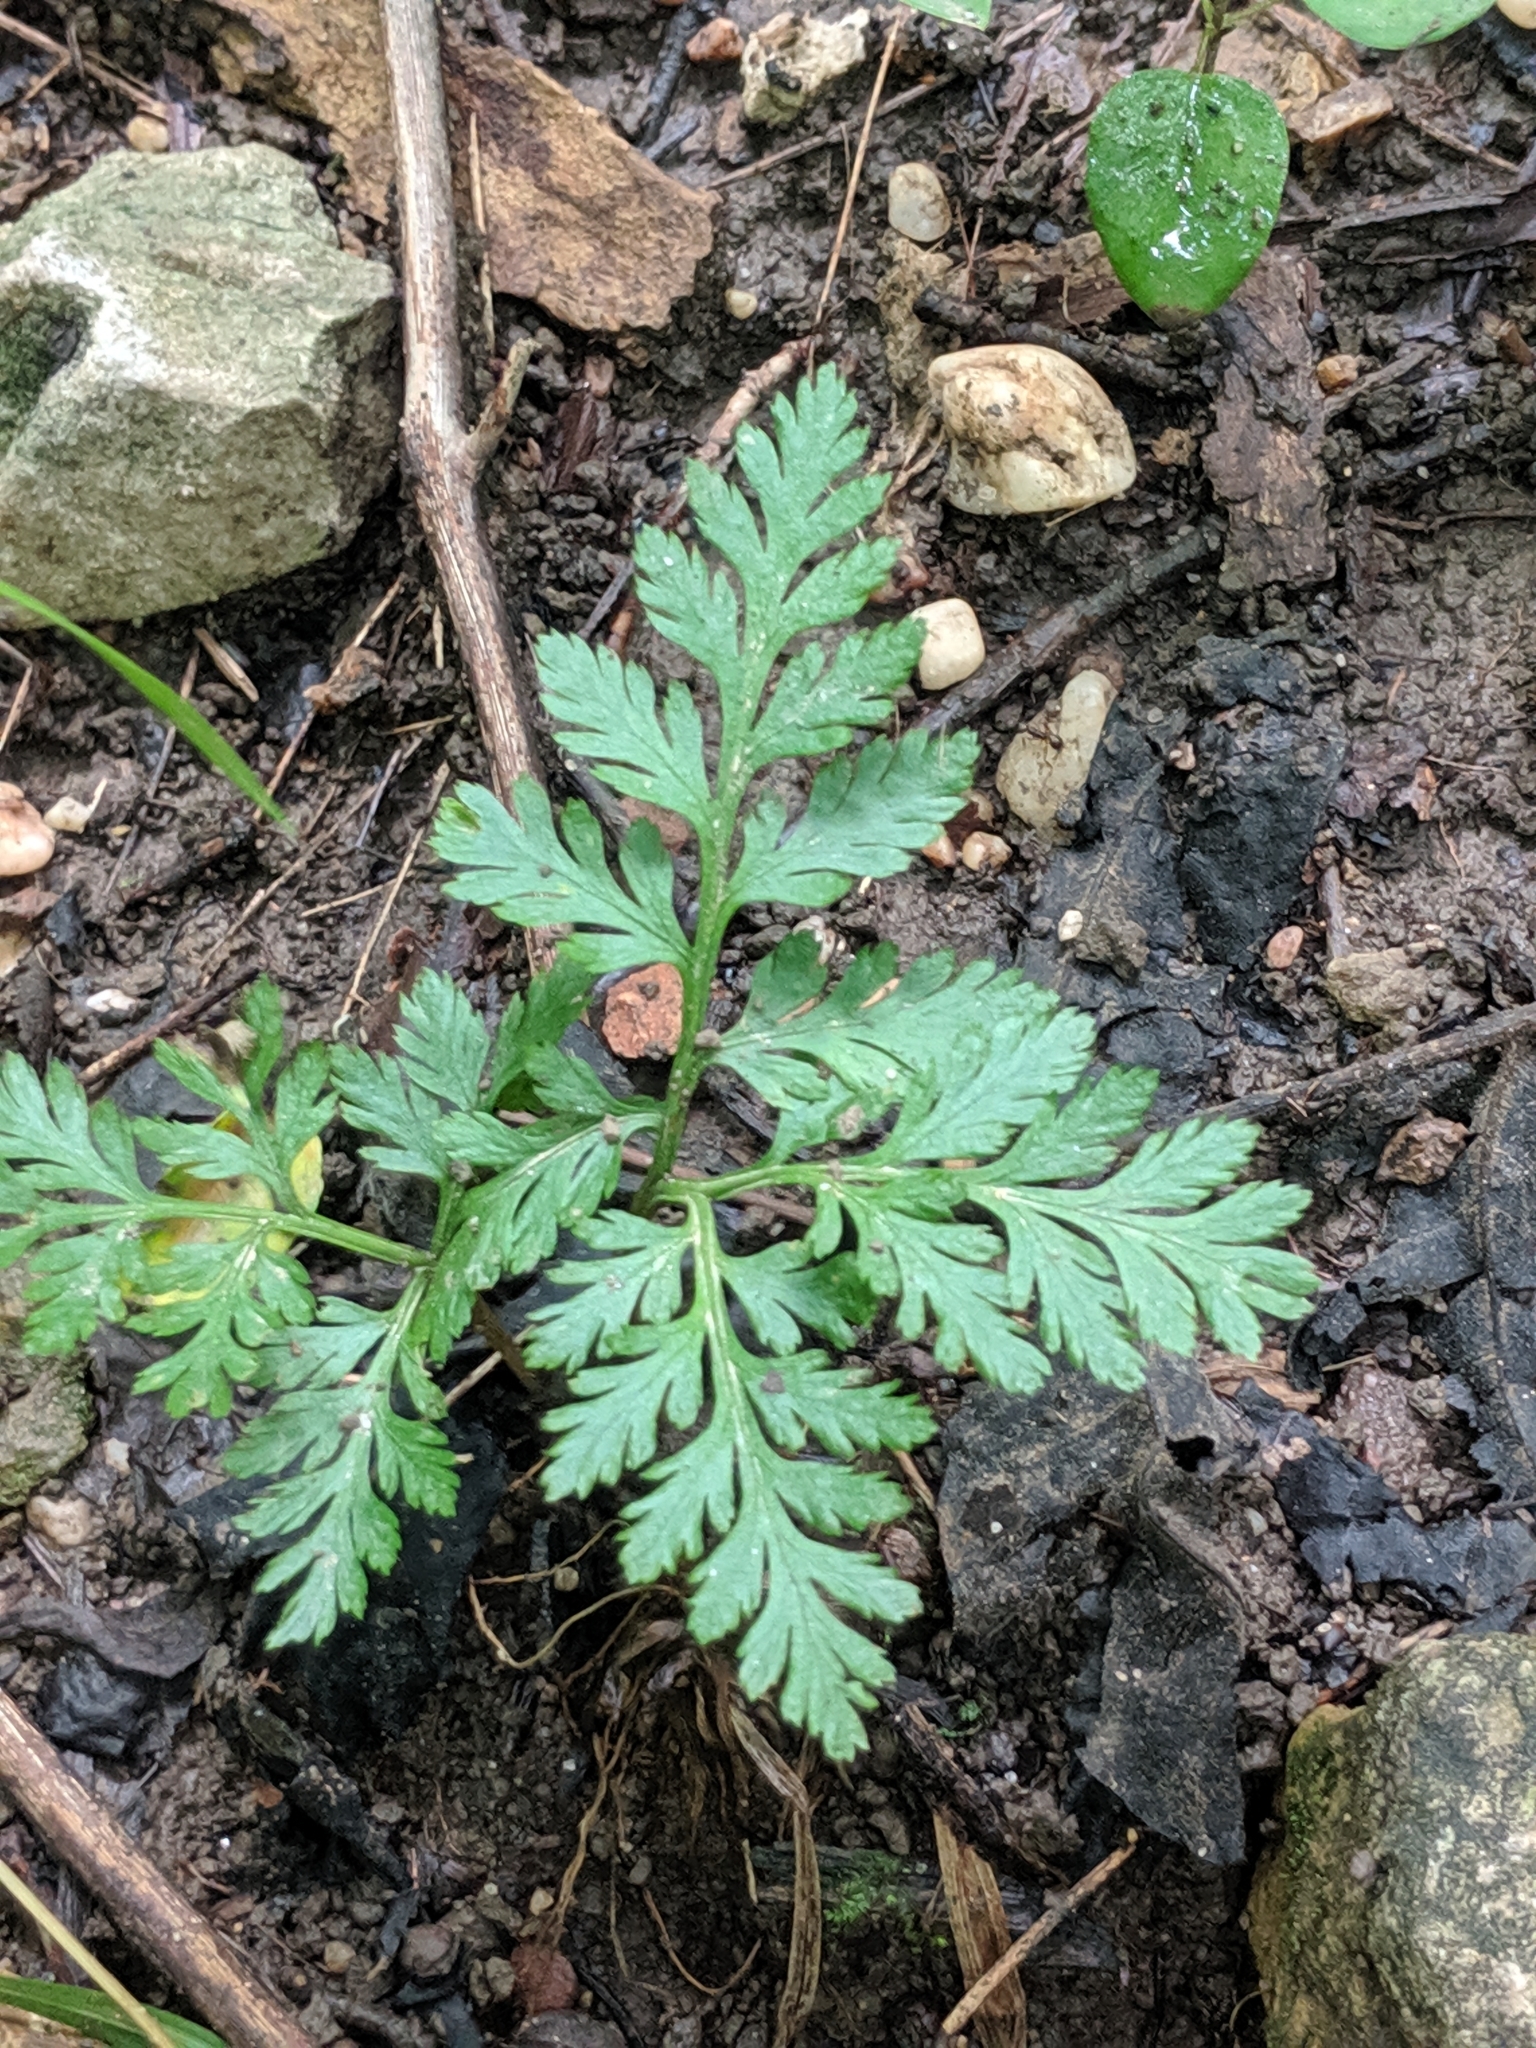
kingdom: Plantae
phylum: Tracheophyta
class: Polypodiopsida
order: Ophioglossales
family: Ophioglossaceae
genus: Botrypus
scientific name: Botrypus virginianus
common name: Common grapefern
